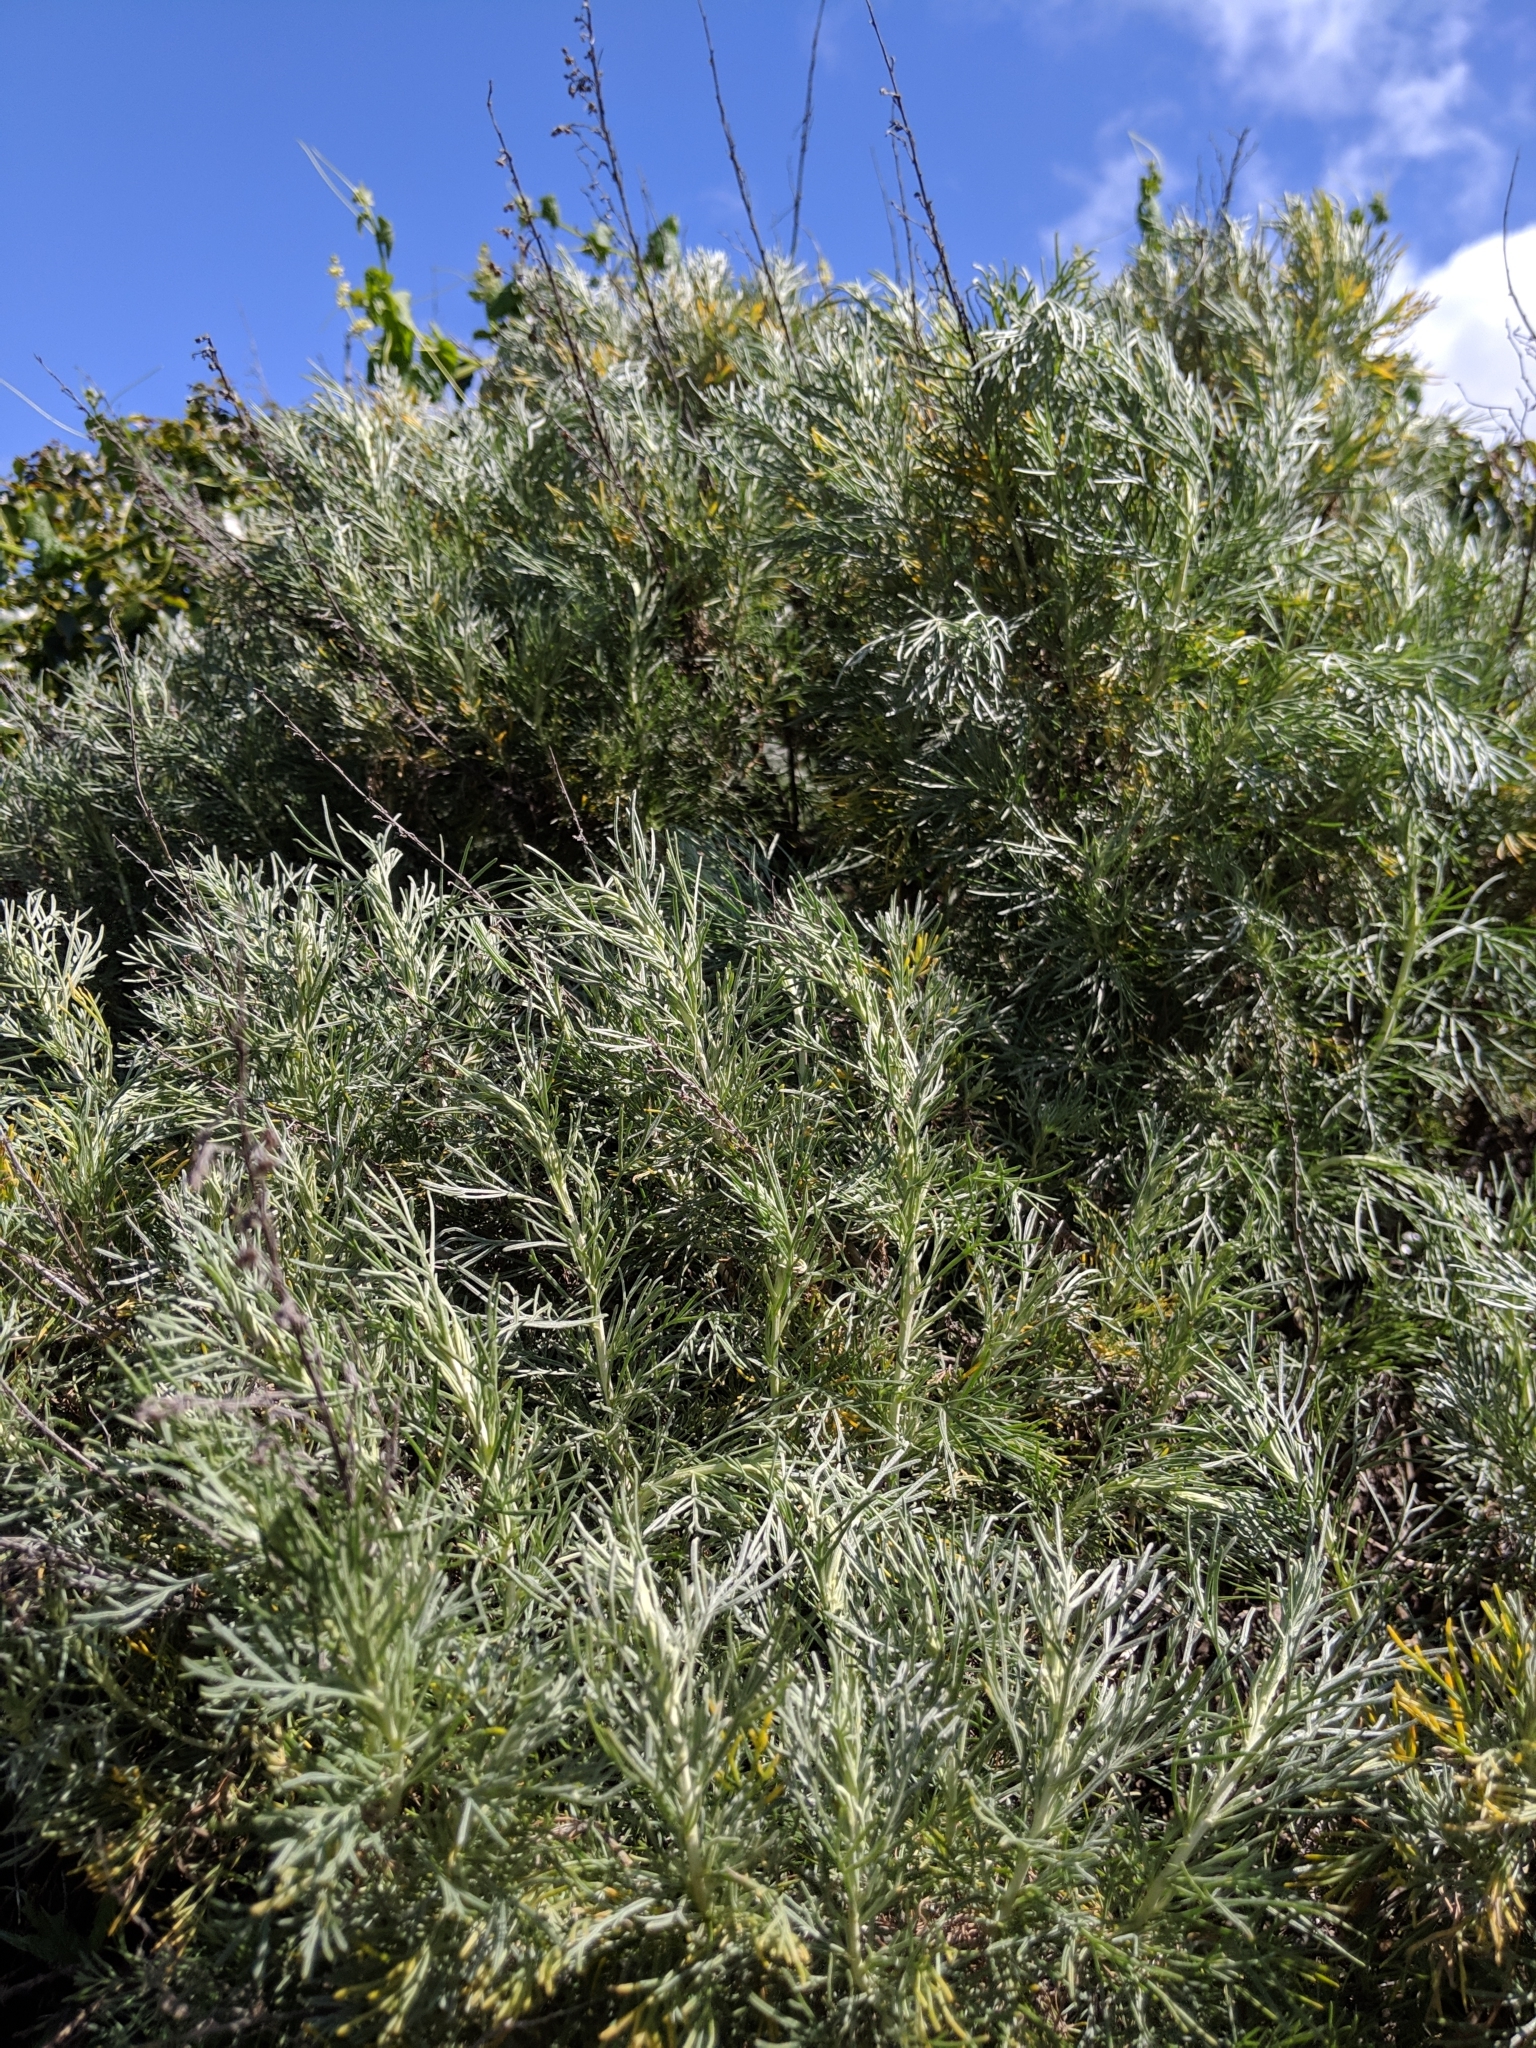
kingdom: Plantae
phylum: Tracheophyta
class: Magnoliopsida
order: Asterales
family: Asteraceae
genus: Artemisia
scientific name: Artemisia californica
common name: California sagebrush
